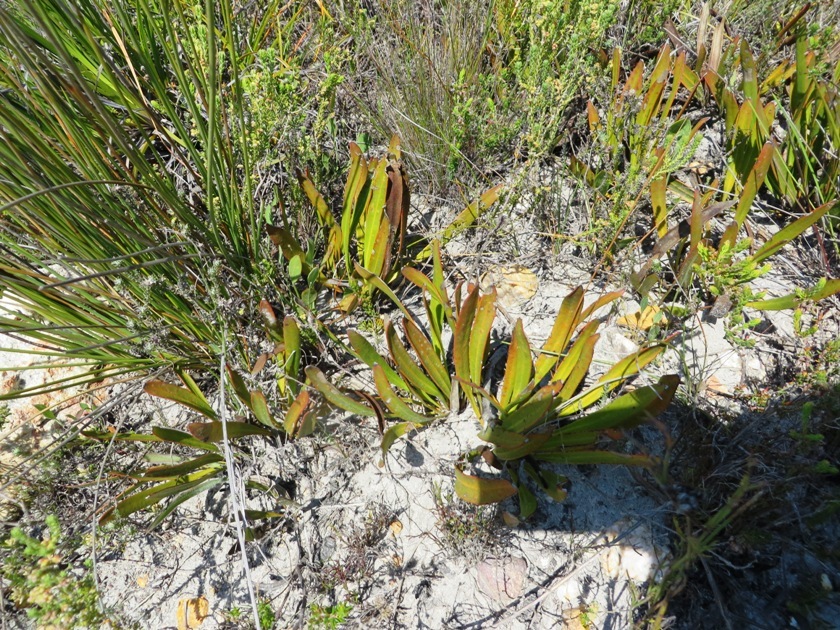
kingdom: Plantae
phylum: Tracheophyta
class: Magnoliopsida
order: Proteales
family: Proteaceae
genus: Protea
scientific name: Protea scabra
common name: Sandpaper-leaf sugarbush
